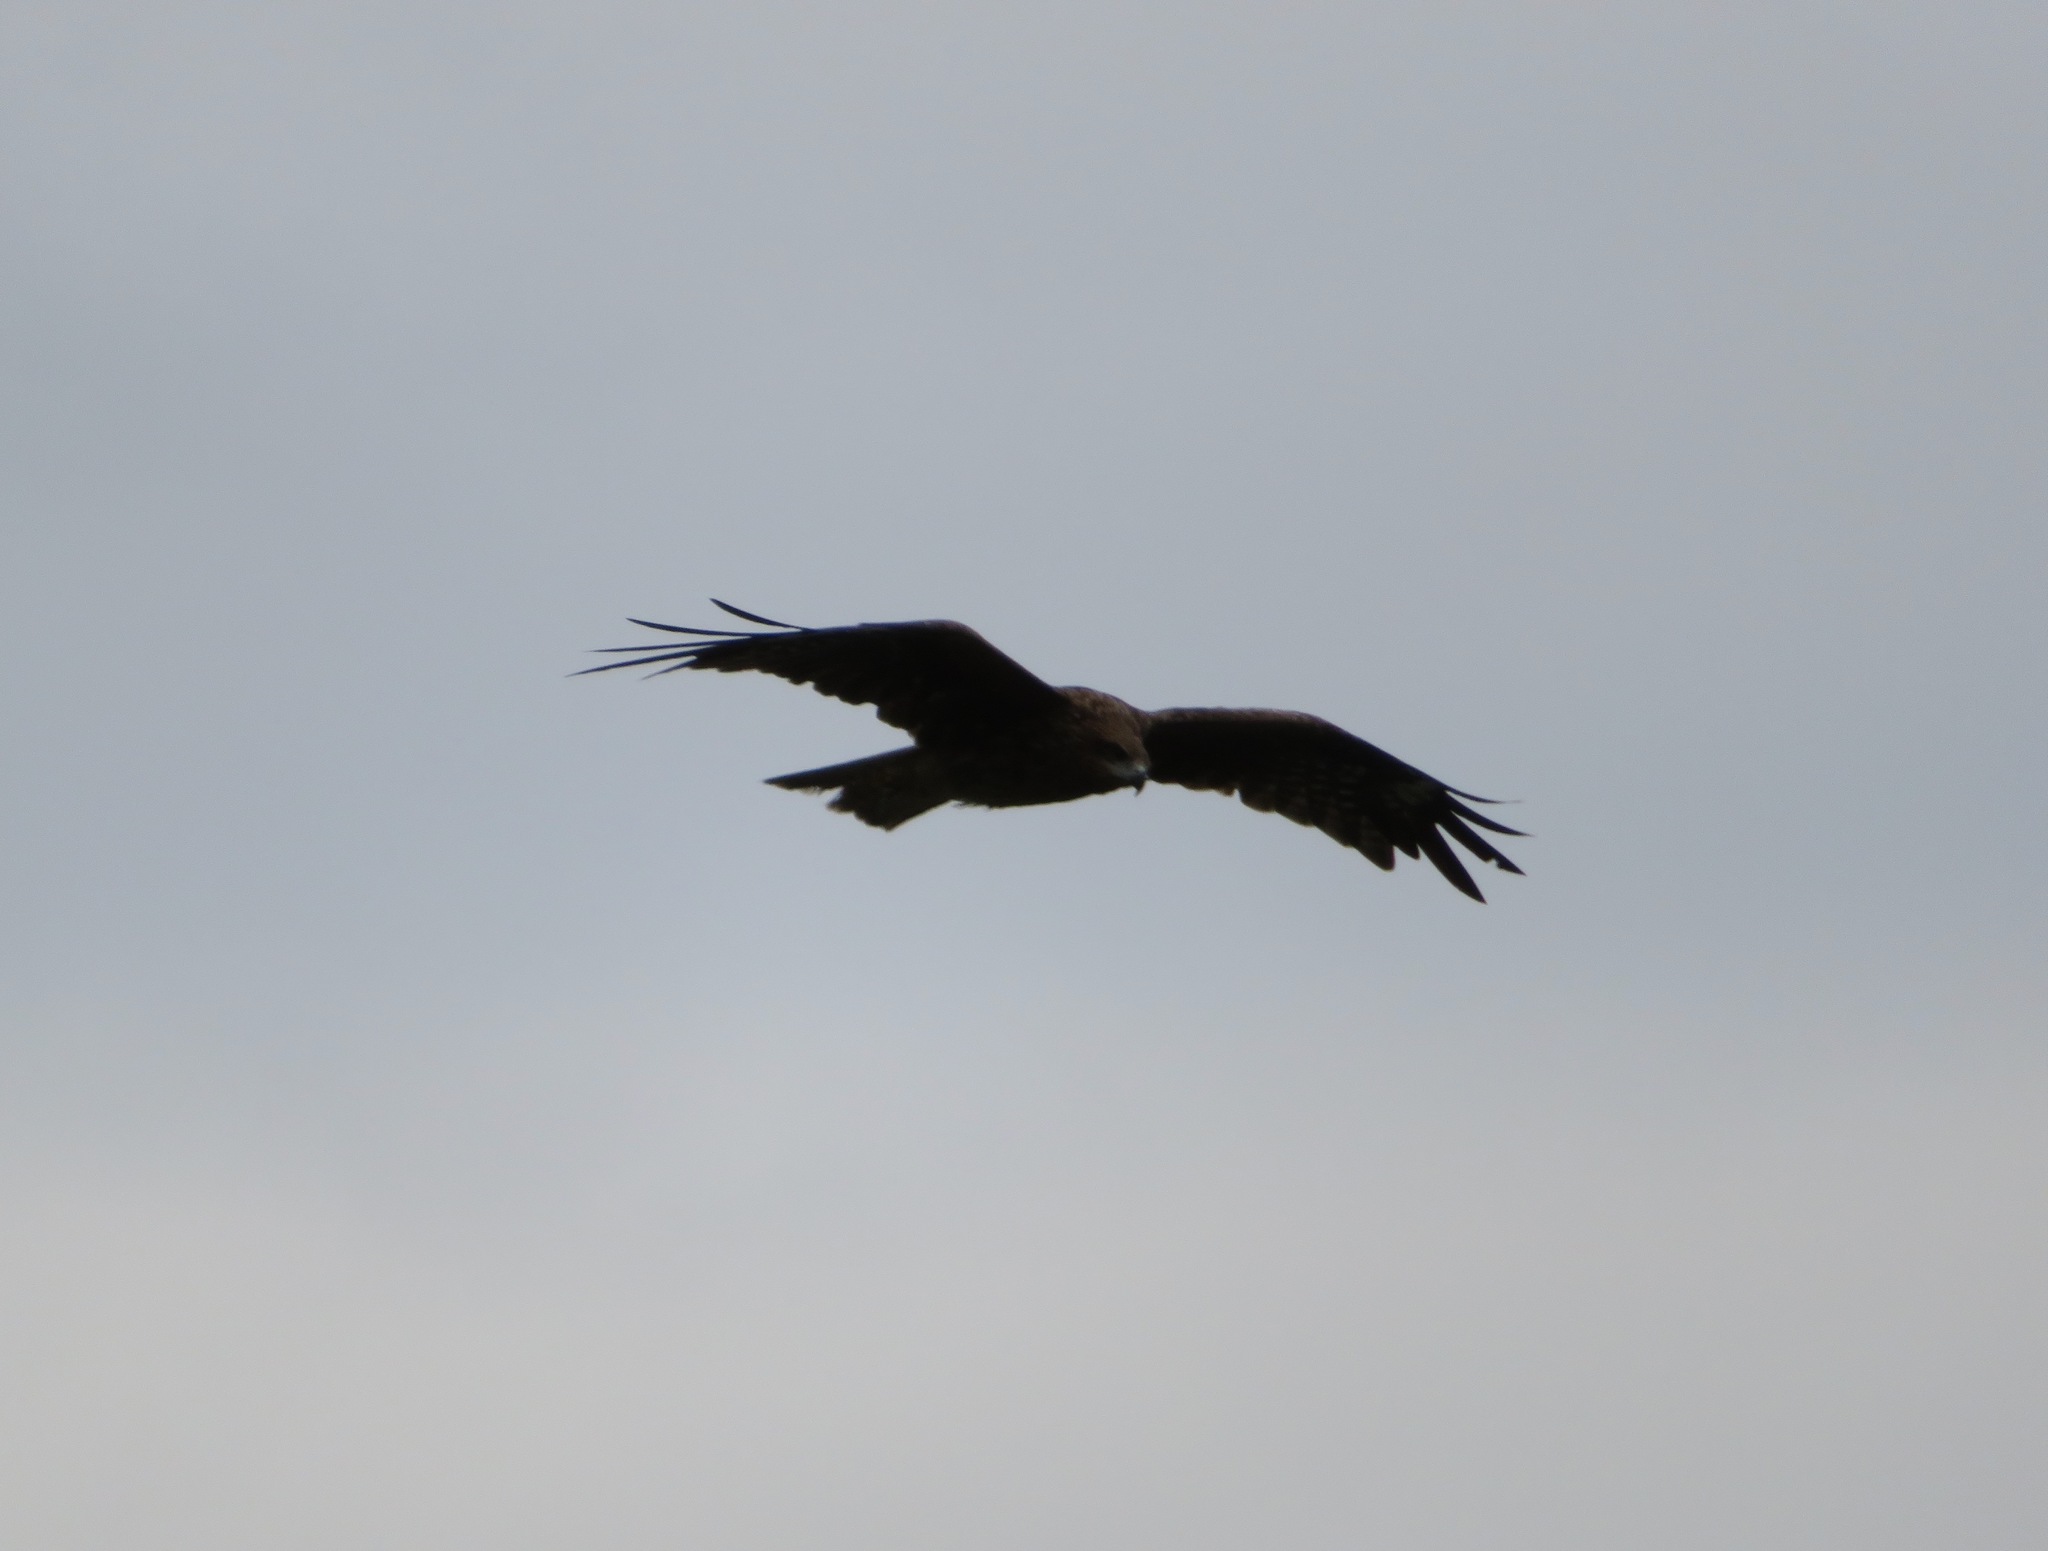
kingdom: Animalia
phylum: Chordata
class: Aves
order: Accipitriformes
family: Accipitridae
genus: Milvus
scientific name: Milvus migrans
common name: Black kite
